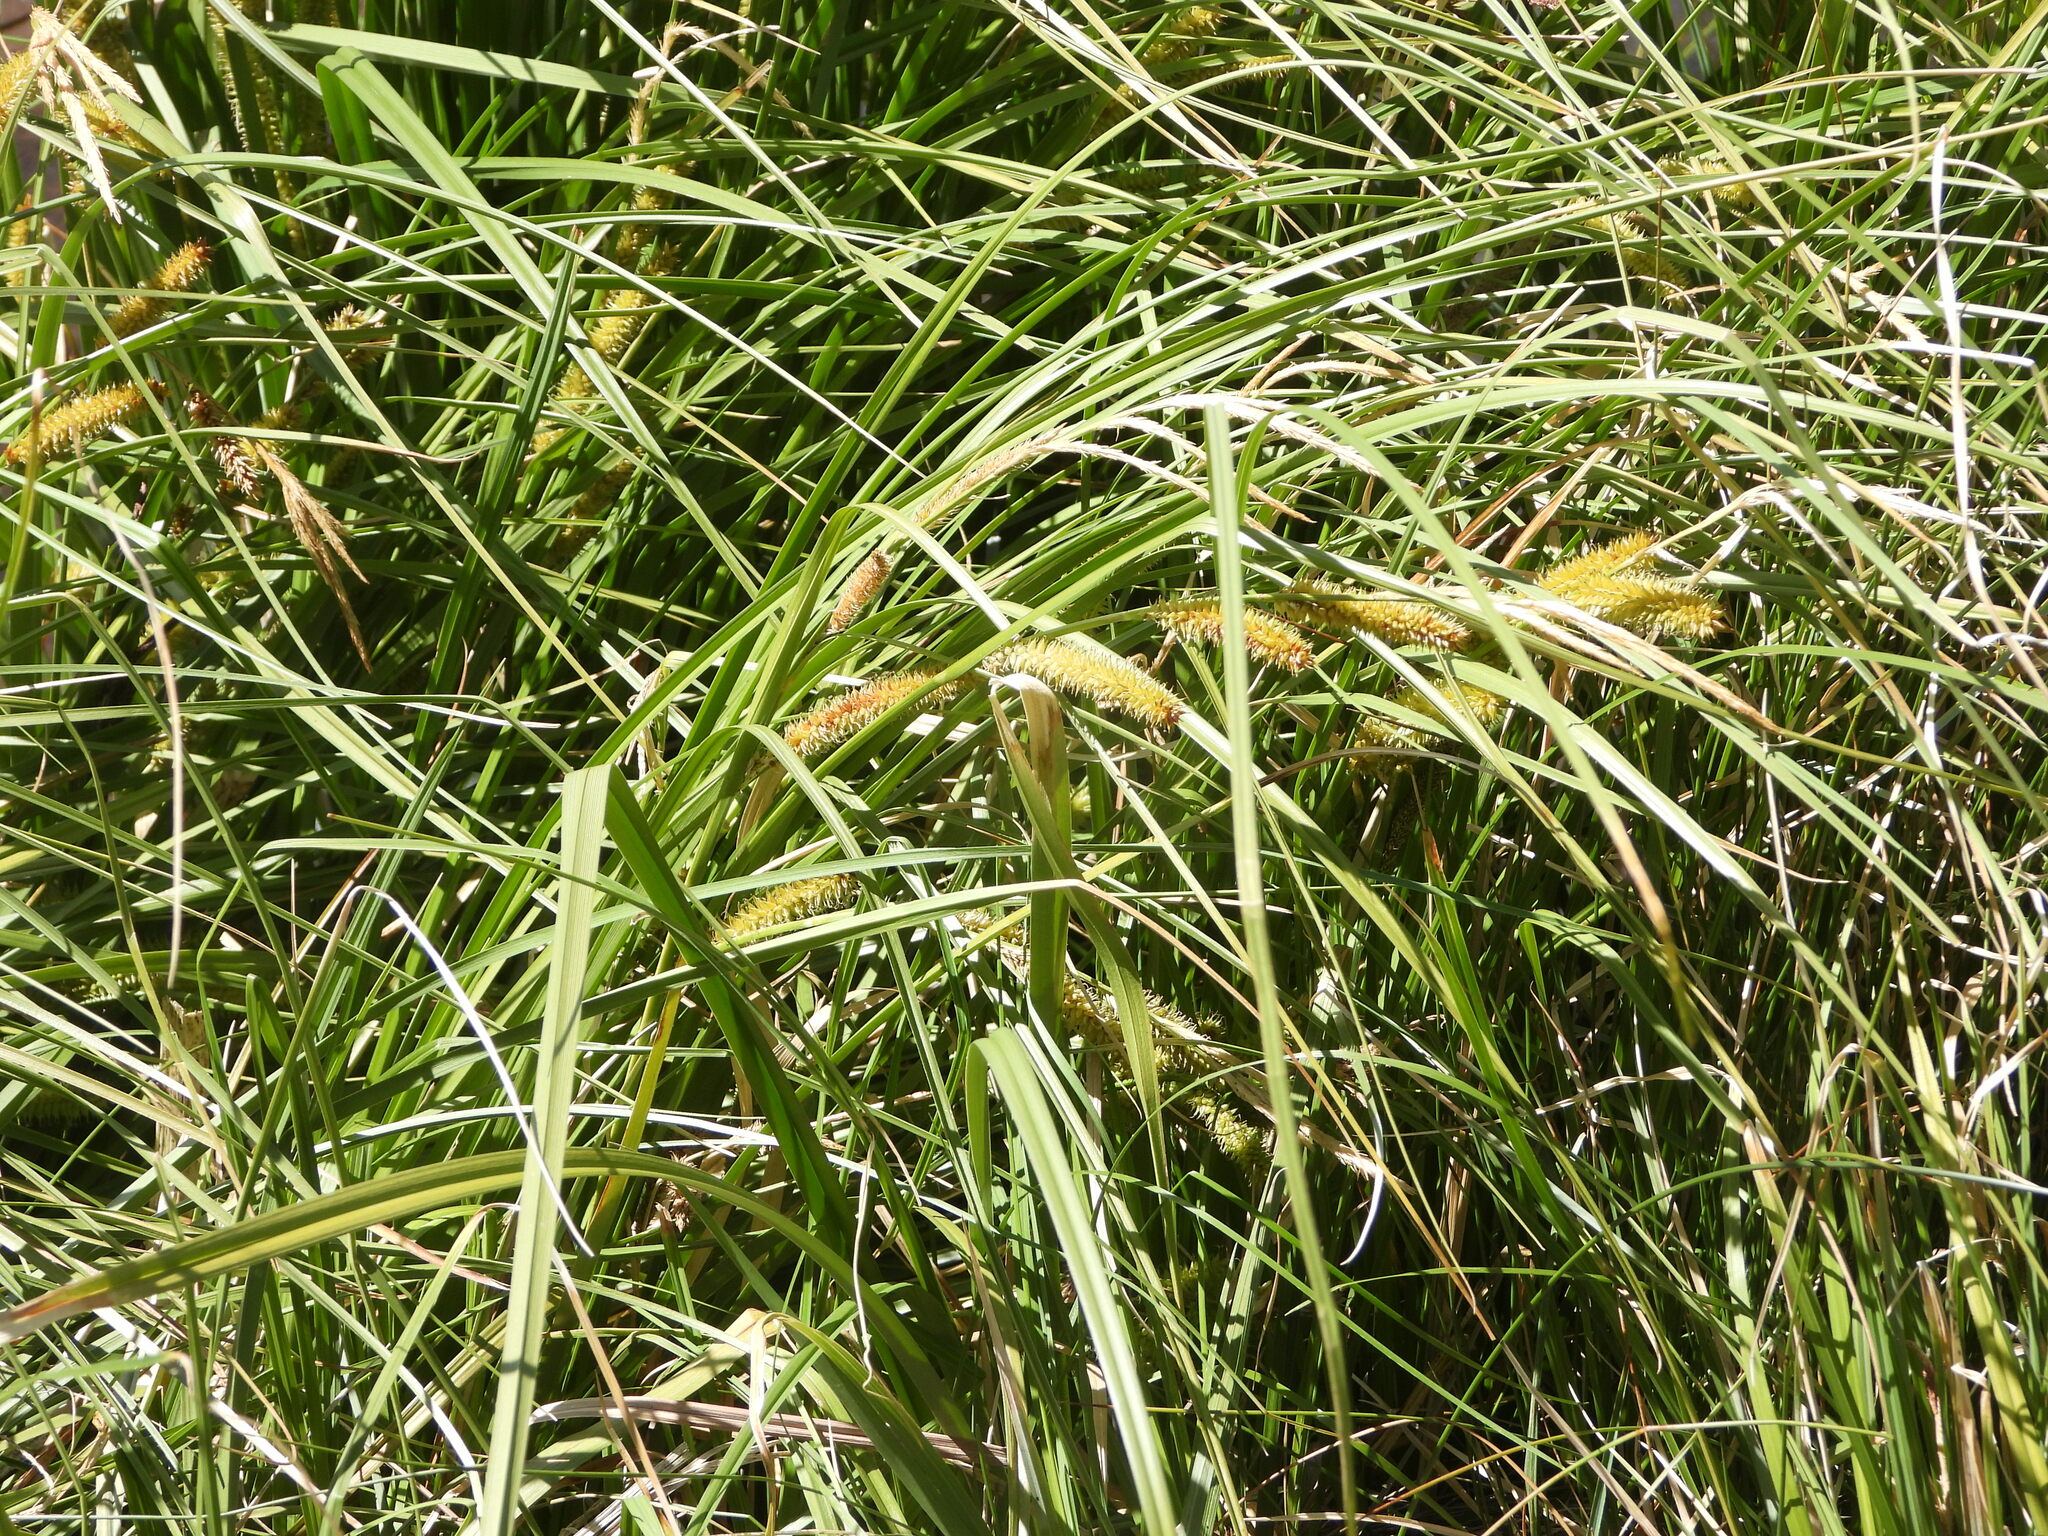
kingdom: Plantae
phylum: Tracheophyta
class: Liliopsida
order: Poales
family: Cyperaceae
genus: Carex
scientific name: Carex utriculata
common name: Beaked sedge
